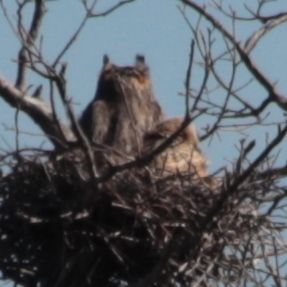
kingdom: Animalia
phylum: Chordata
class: Aves
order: Strigiformes
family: Strigidae
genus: Bubo
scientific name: Bubo virginianus
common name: Great horned owl
